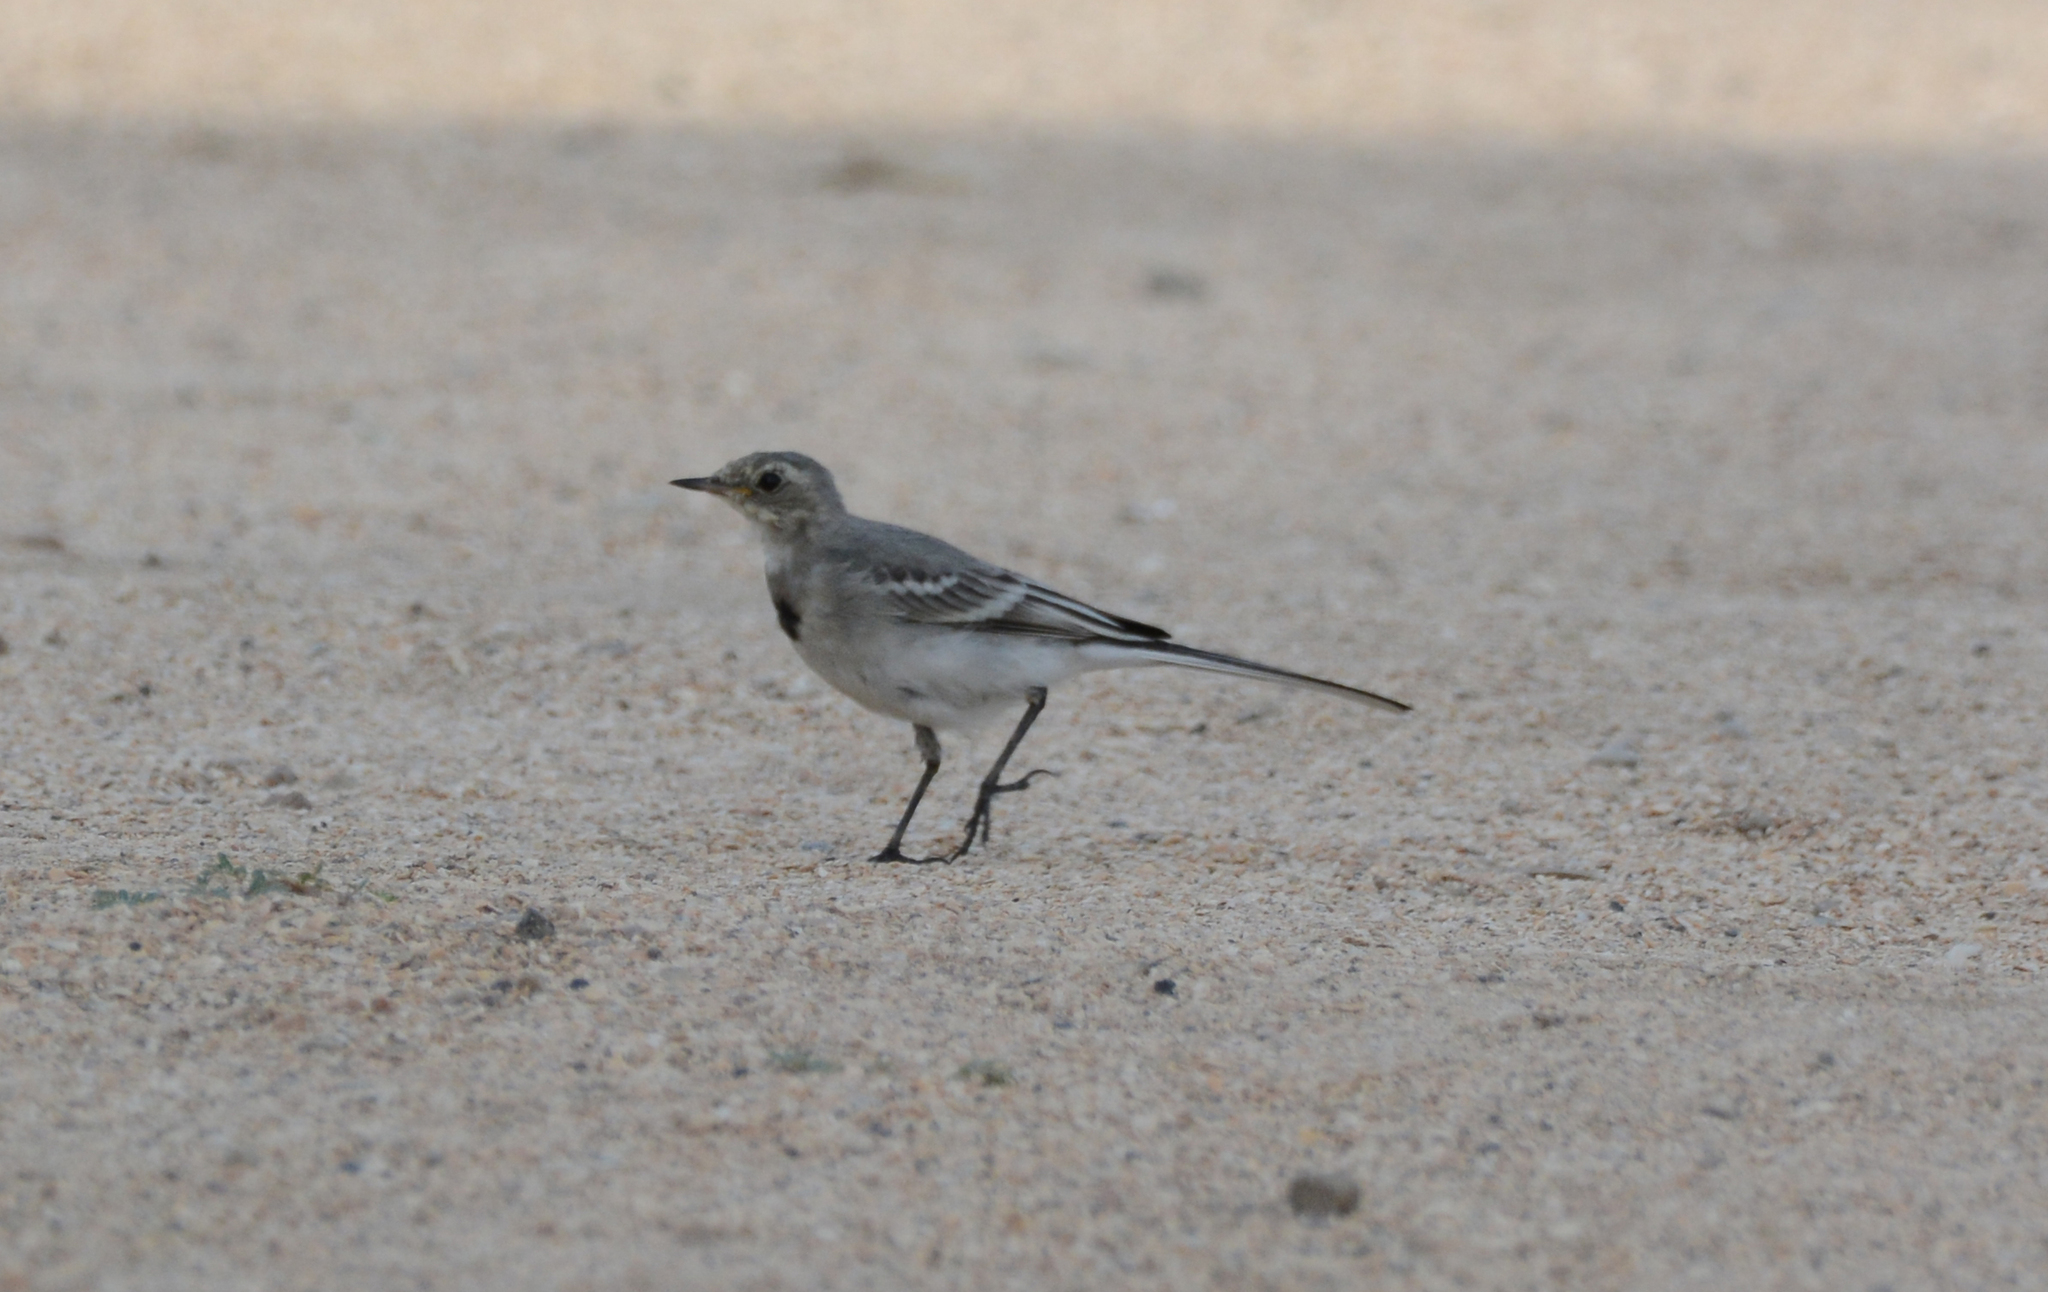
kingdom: Animalia
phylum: Chordata
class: Aves
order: Passeriformes
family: Motacillidae
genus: Motacilla
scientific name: Motacilla alba
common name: White wagtail
